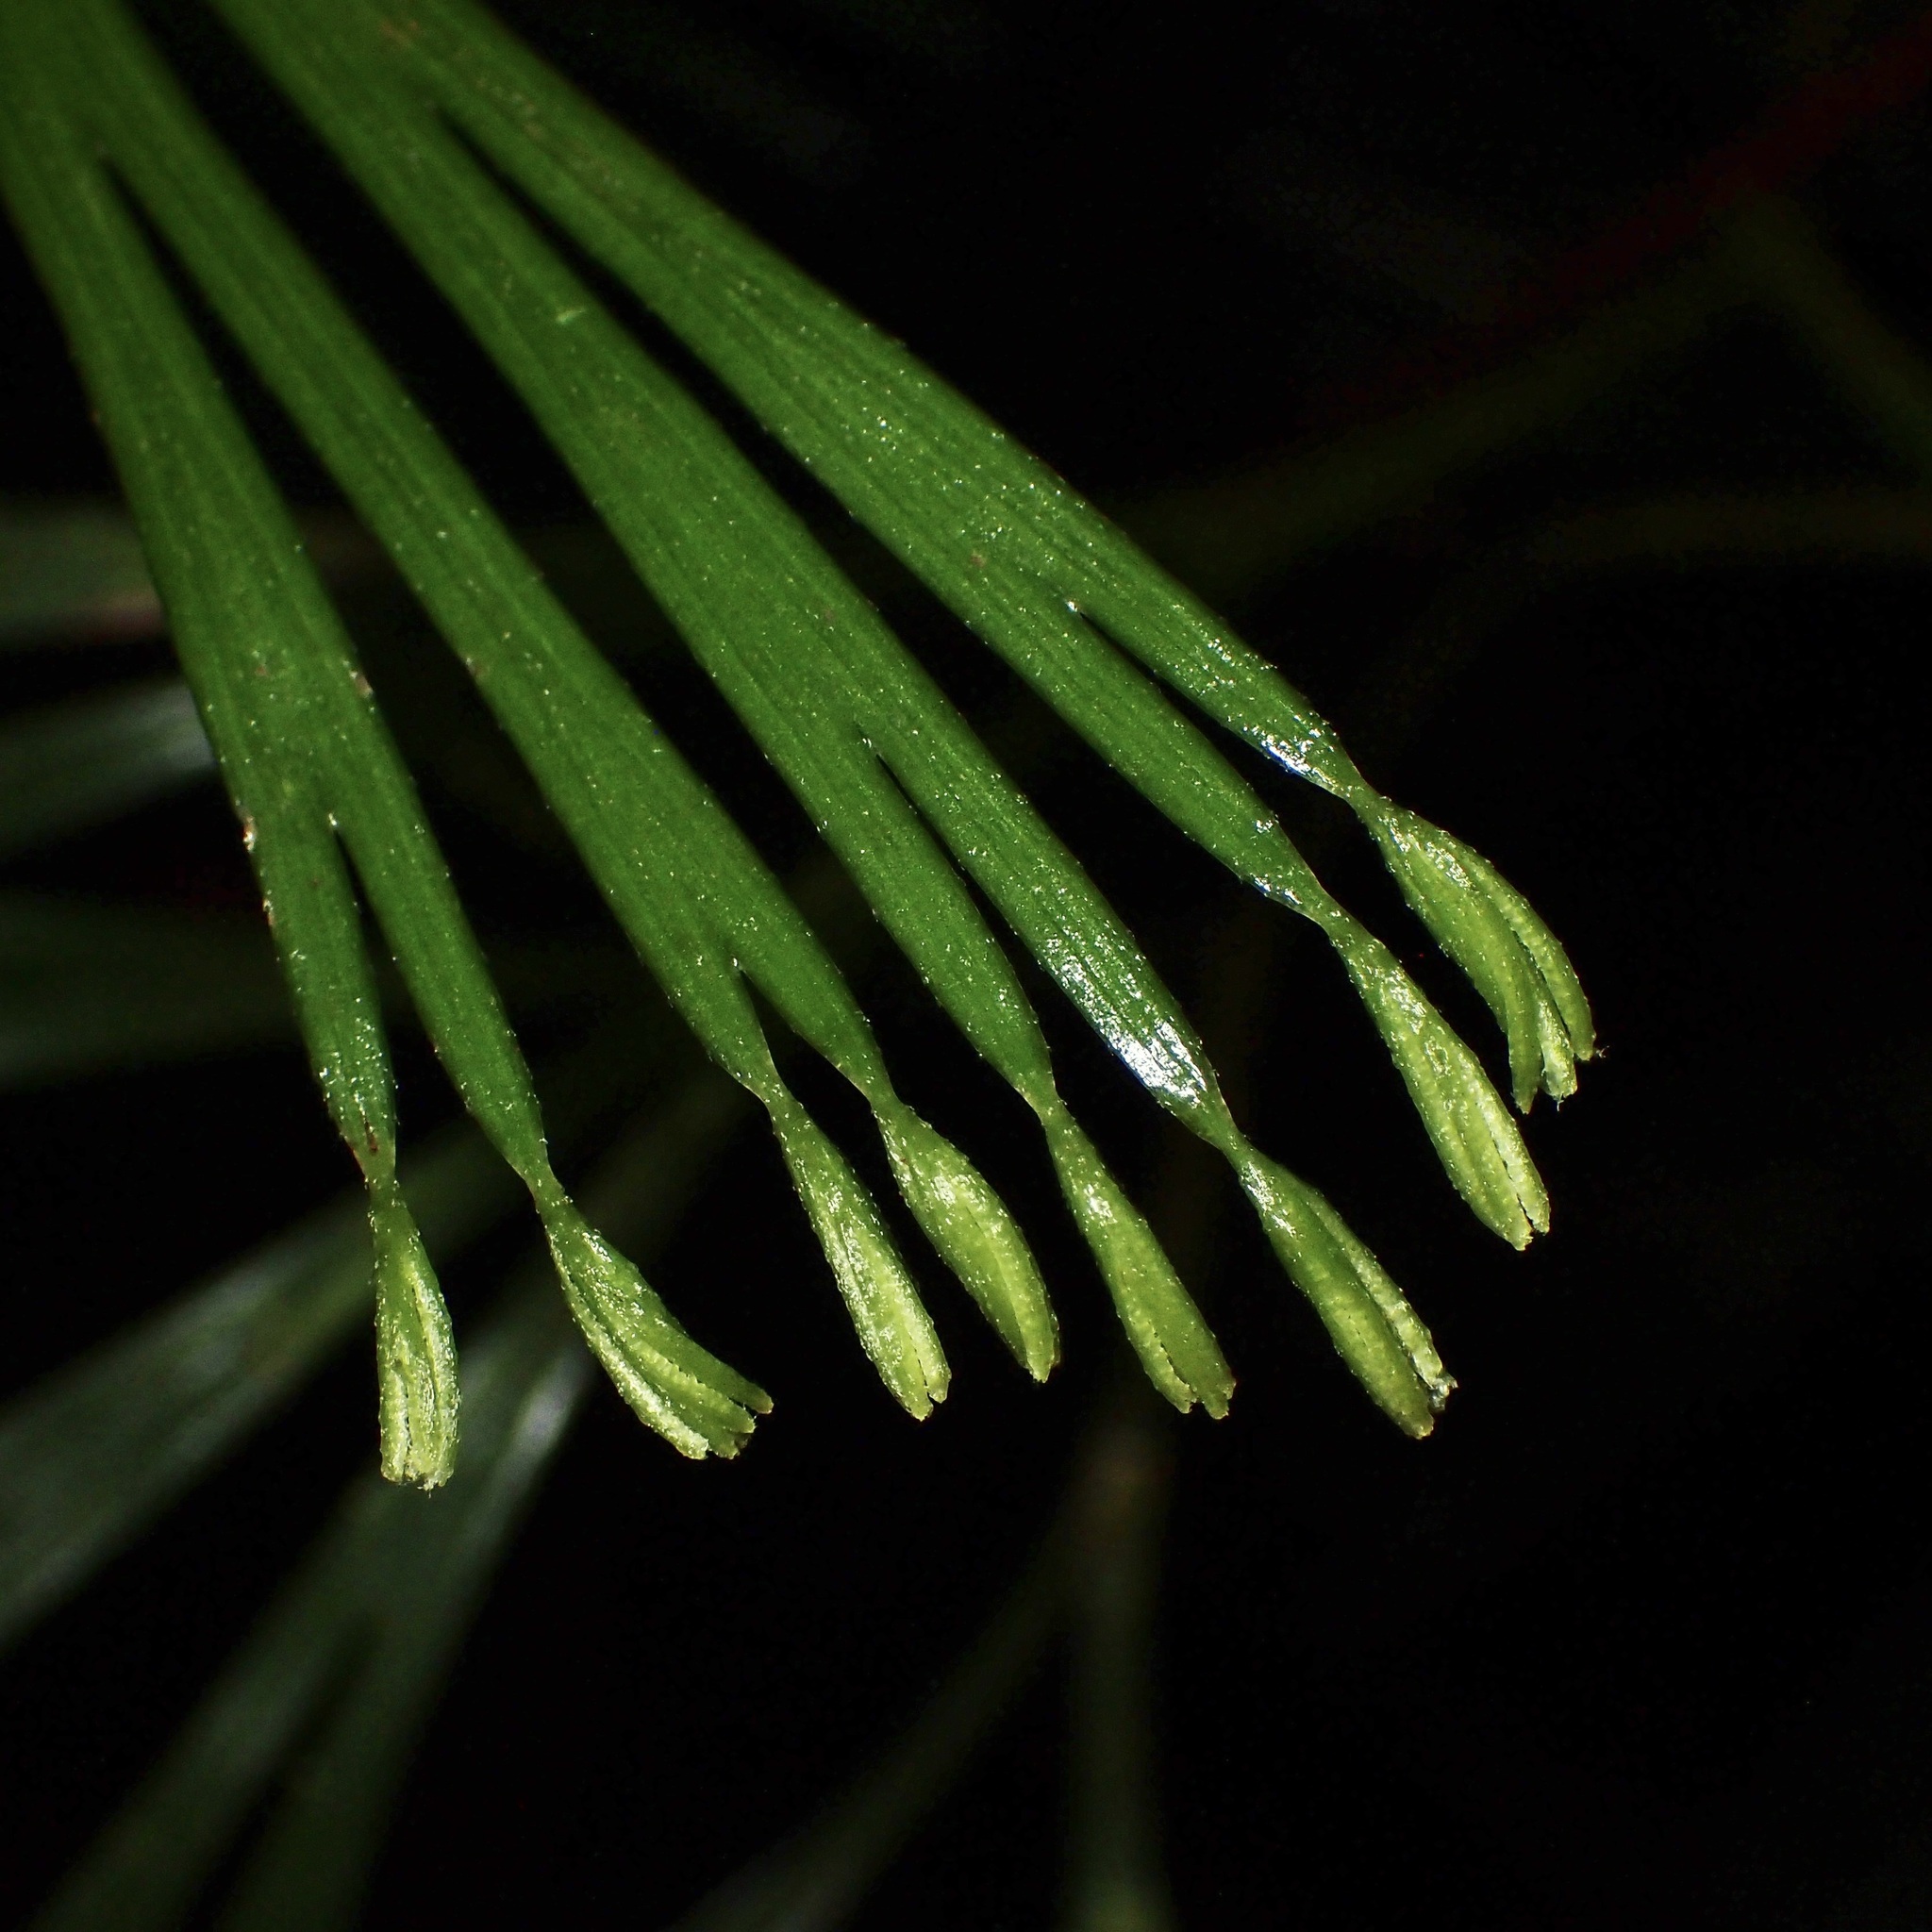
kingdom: Plantae
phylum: Tracheophyta
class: Polypodiopsida
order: Schizaeales
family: Schizaeaceae
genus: Schizaea
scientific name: Schizaea dichotoma
